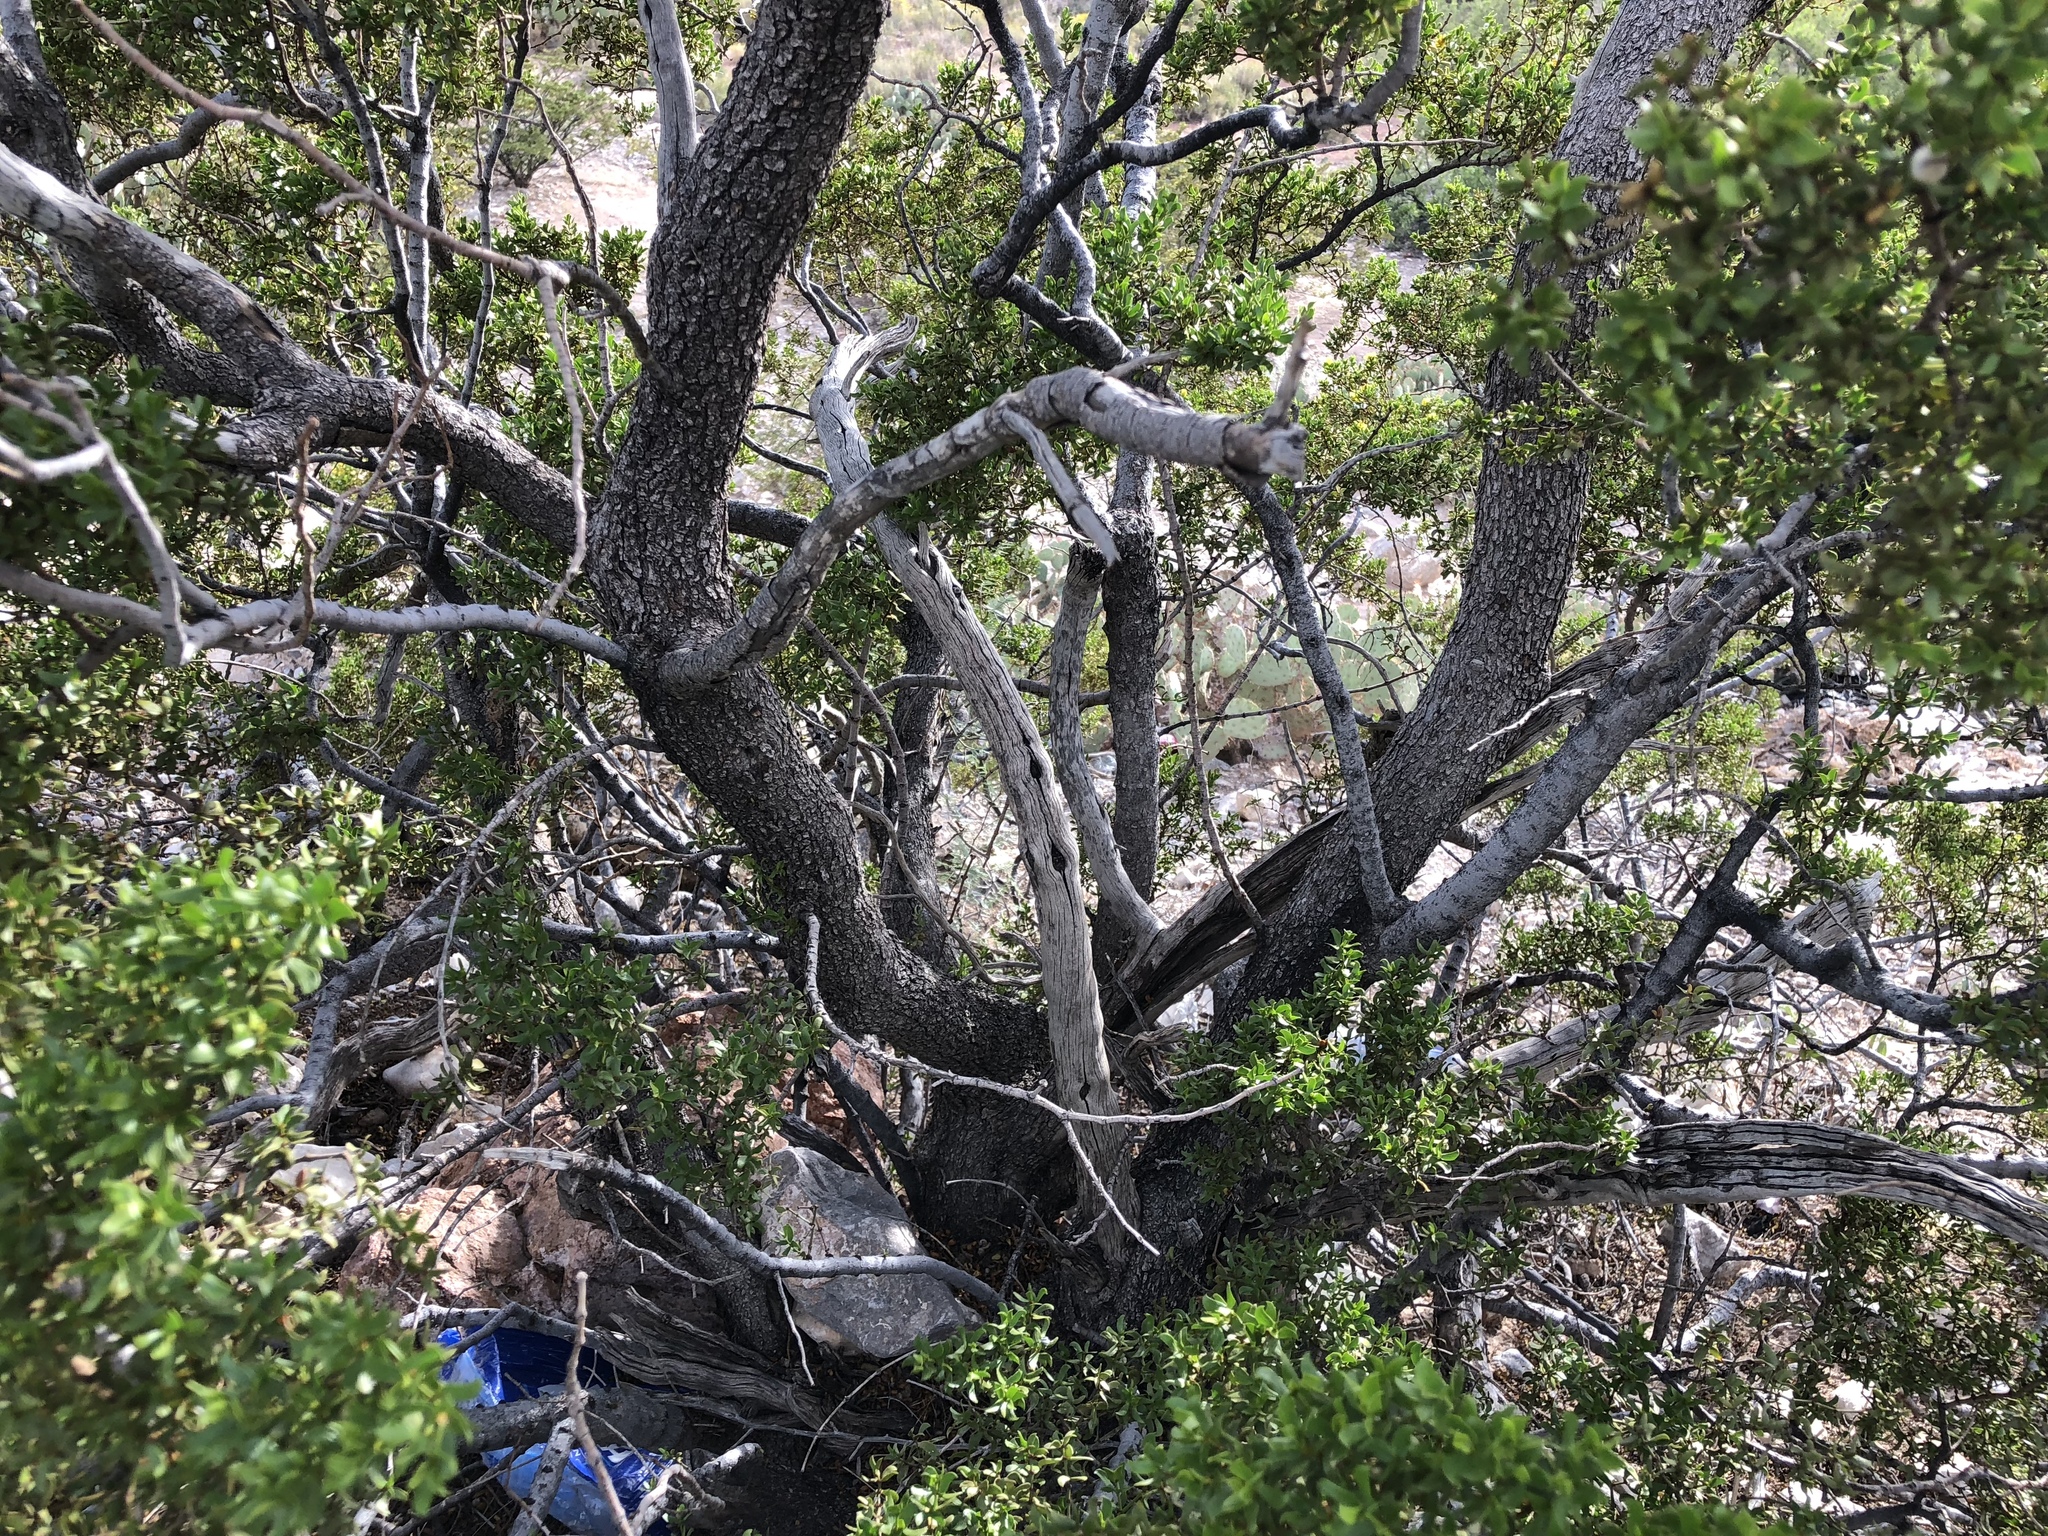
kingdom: Plantae
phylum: Tracheophyta
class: Magnoliopsida
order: Zygophyllales
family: Zygophyllaceae
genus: Larrea
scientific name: Larrea tridentata
